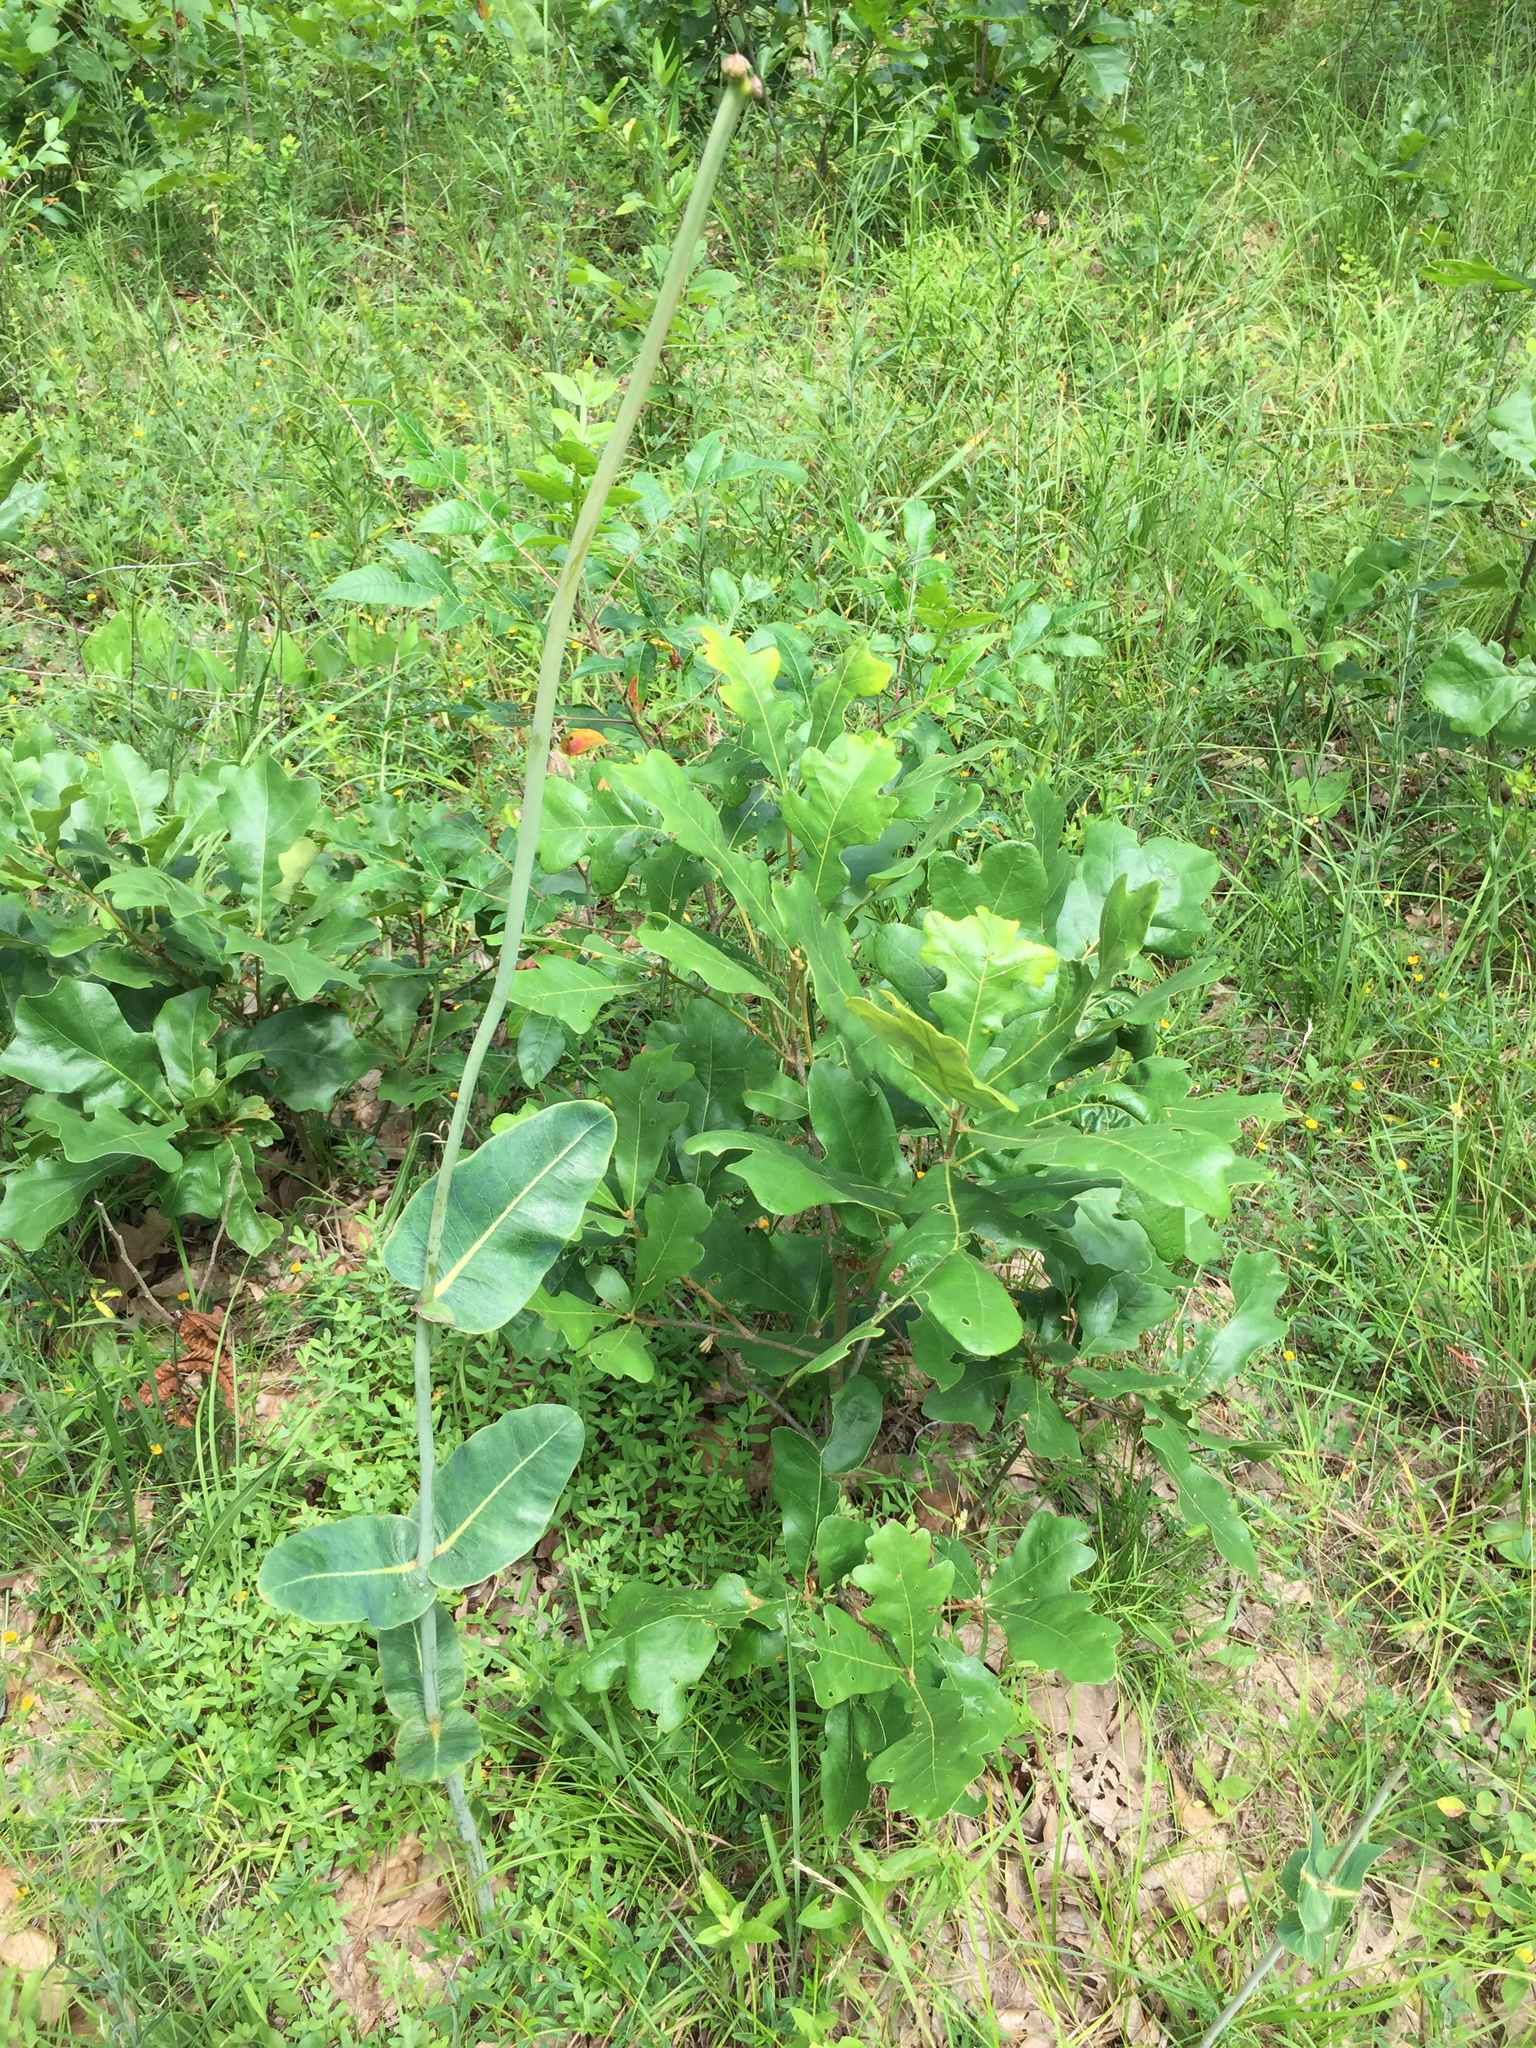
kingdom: Plantae
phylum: Tracheophyta
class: Magnoliopsida
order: Gentianales
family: Apocynaceae
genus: Asclepias
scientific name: Asclepias amplexicaulis
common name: Blunt-leaf milkweed
